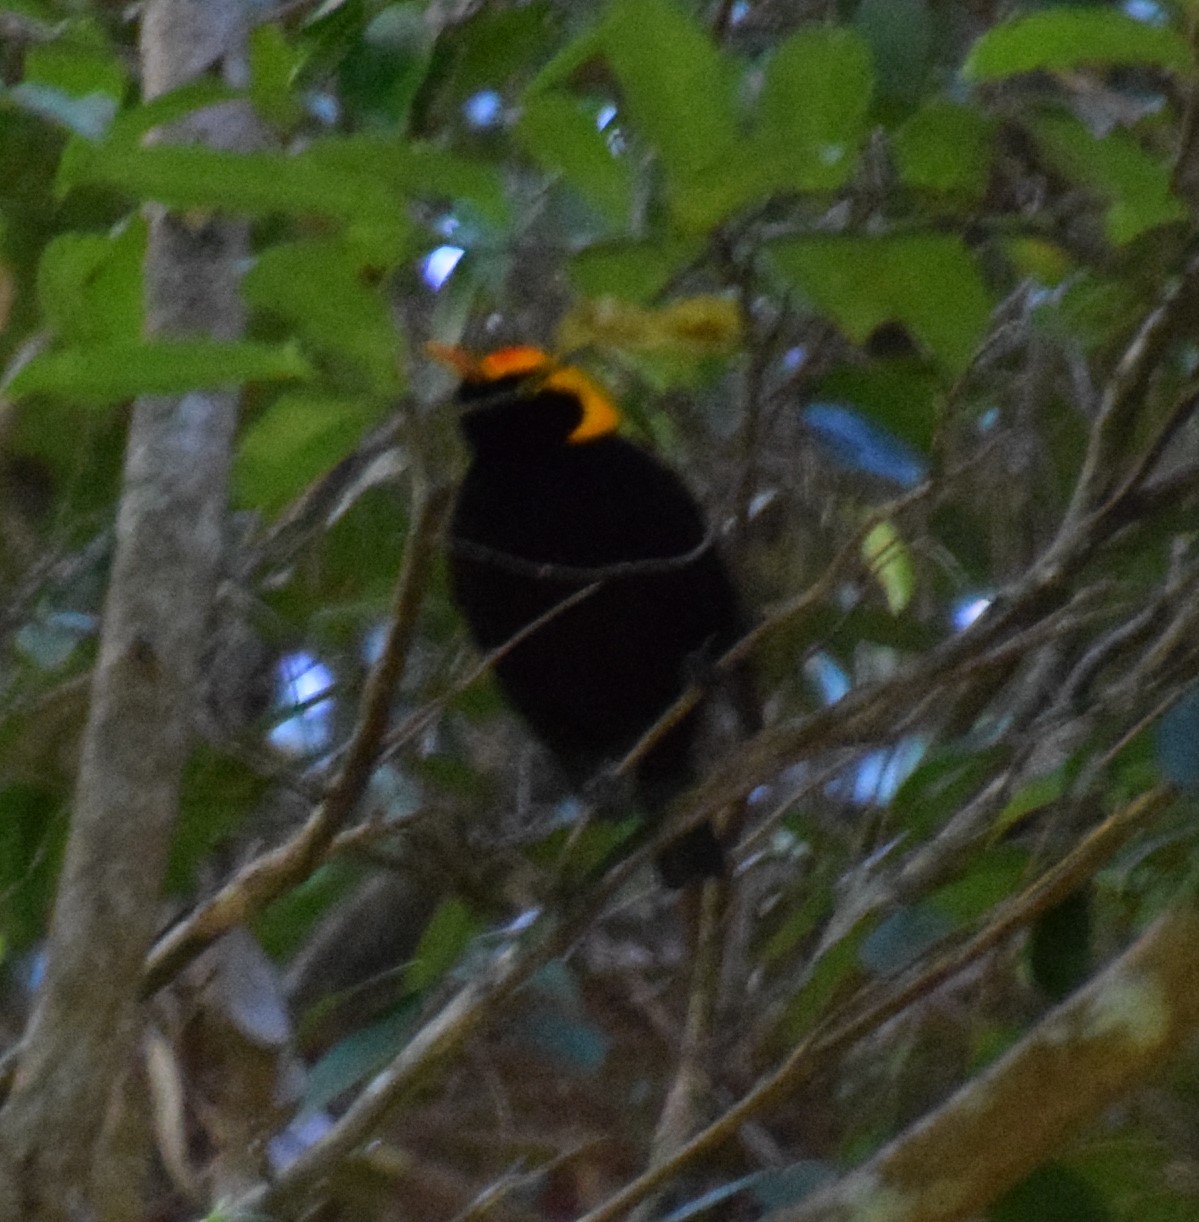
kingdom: Animalia
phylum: Chordata
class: Aves
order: Passeriformes
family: Ptilonorhynchidae
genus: Sericulus
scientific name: Sericulus chrysocephalus
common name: Regent bowerbird
